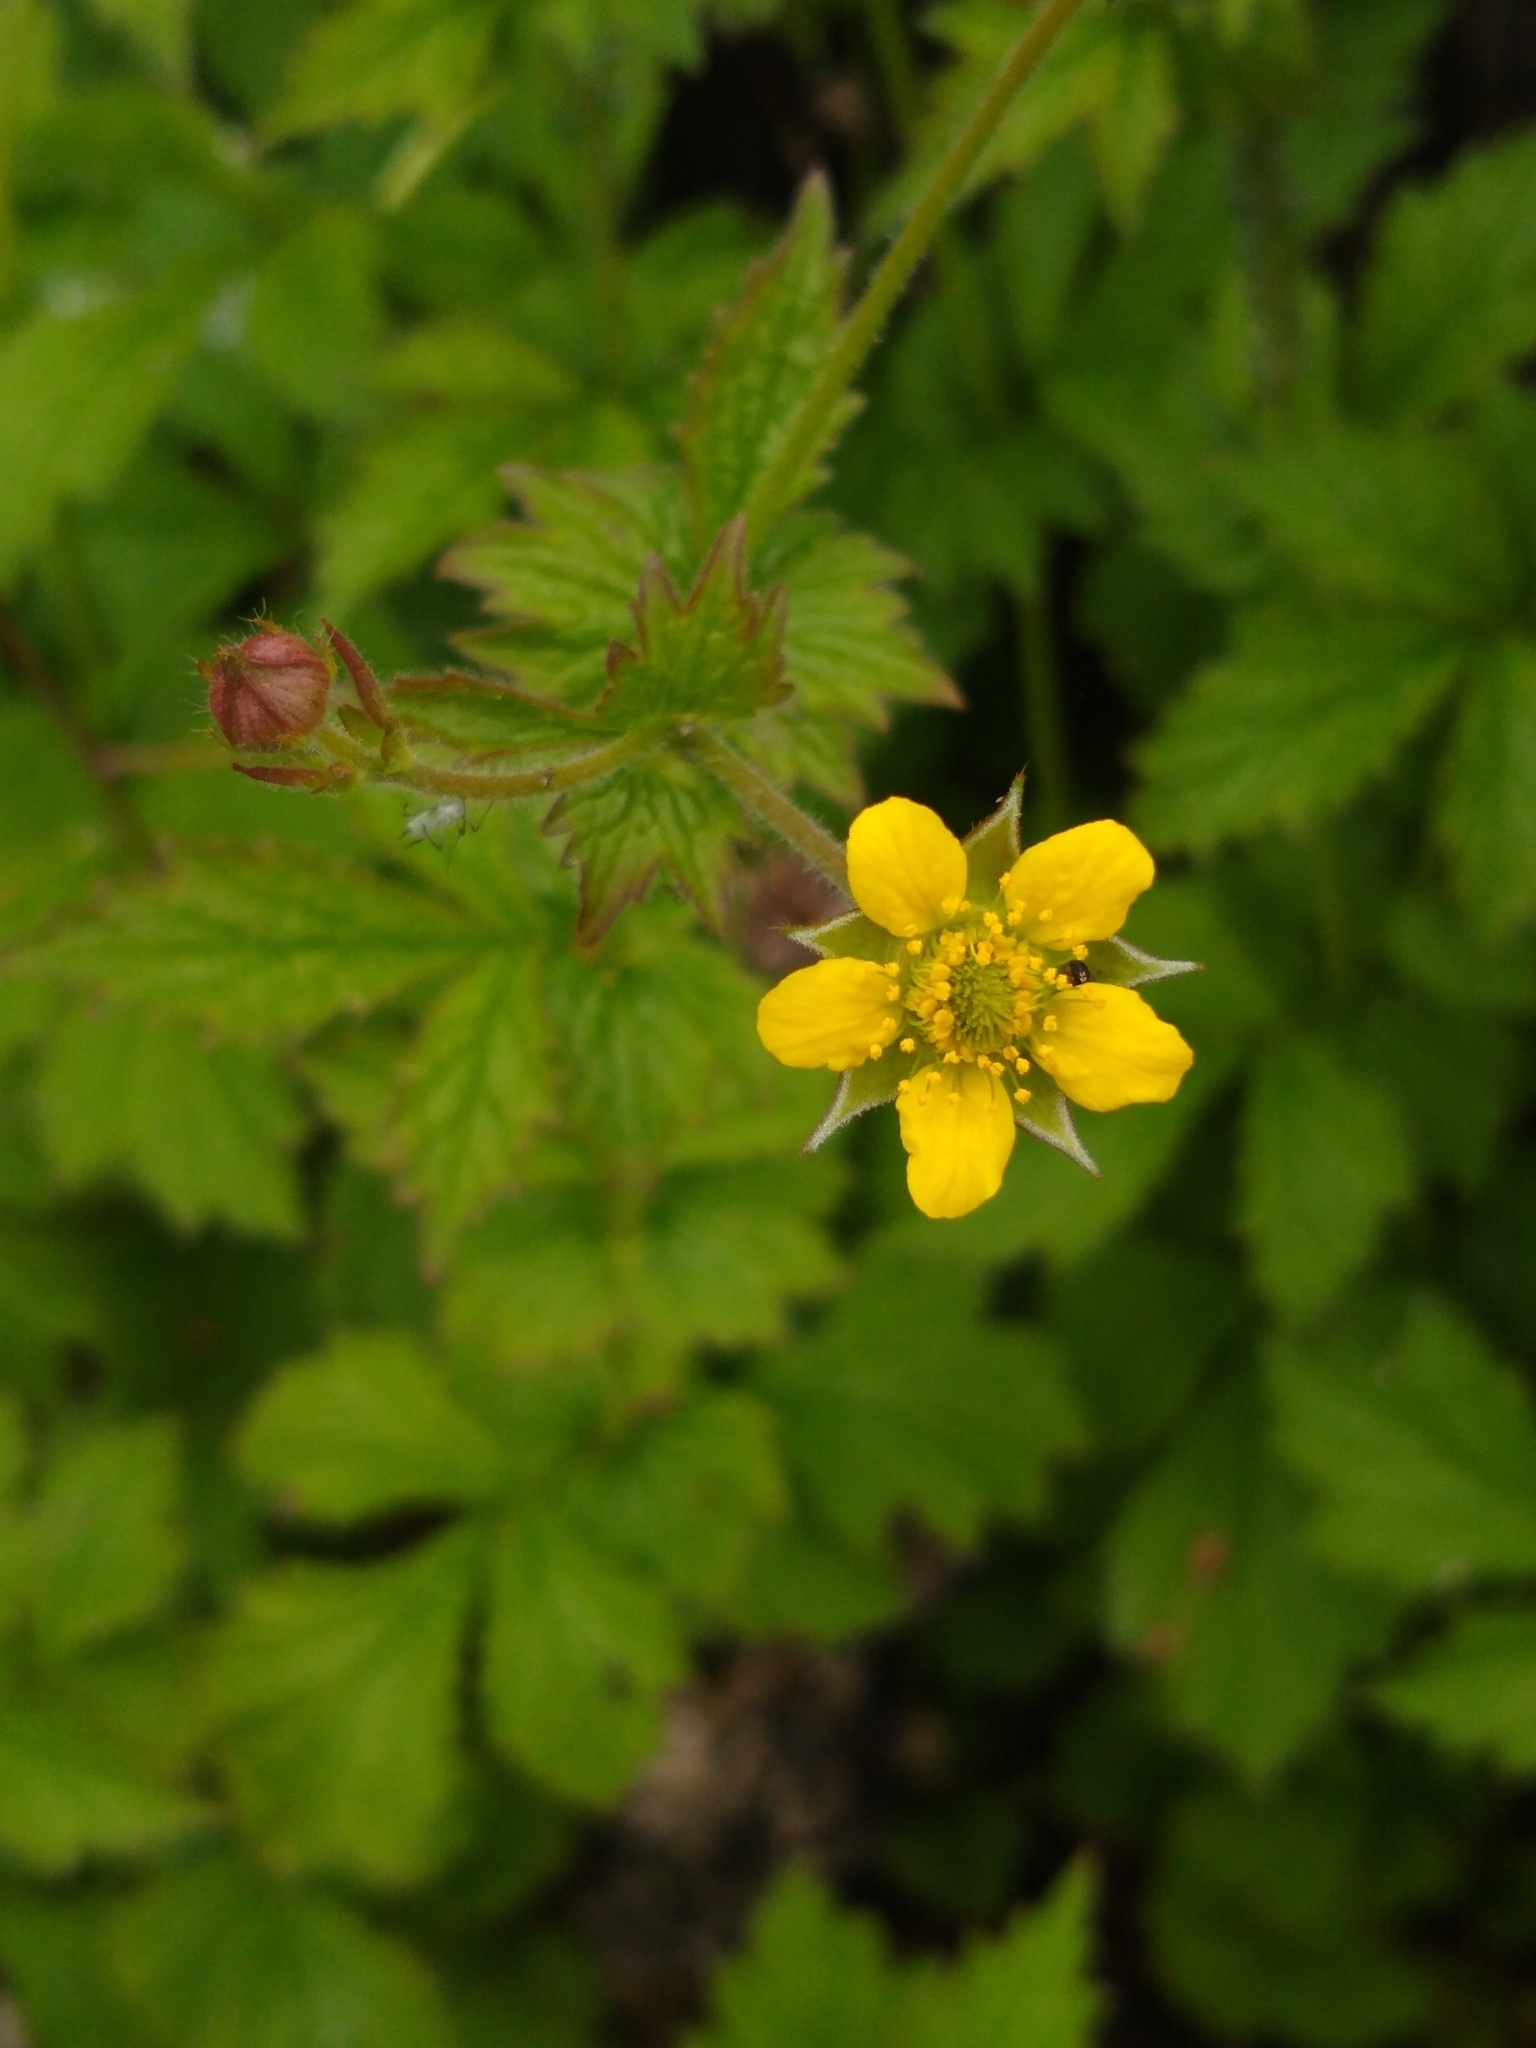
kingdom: Plantae
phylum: Tracheophyta
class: Magnoliopsida
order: Rosales
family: Rosaceae
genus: Geum
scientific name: Geum urbanum
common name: Wood avens
